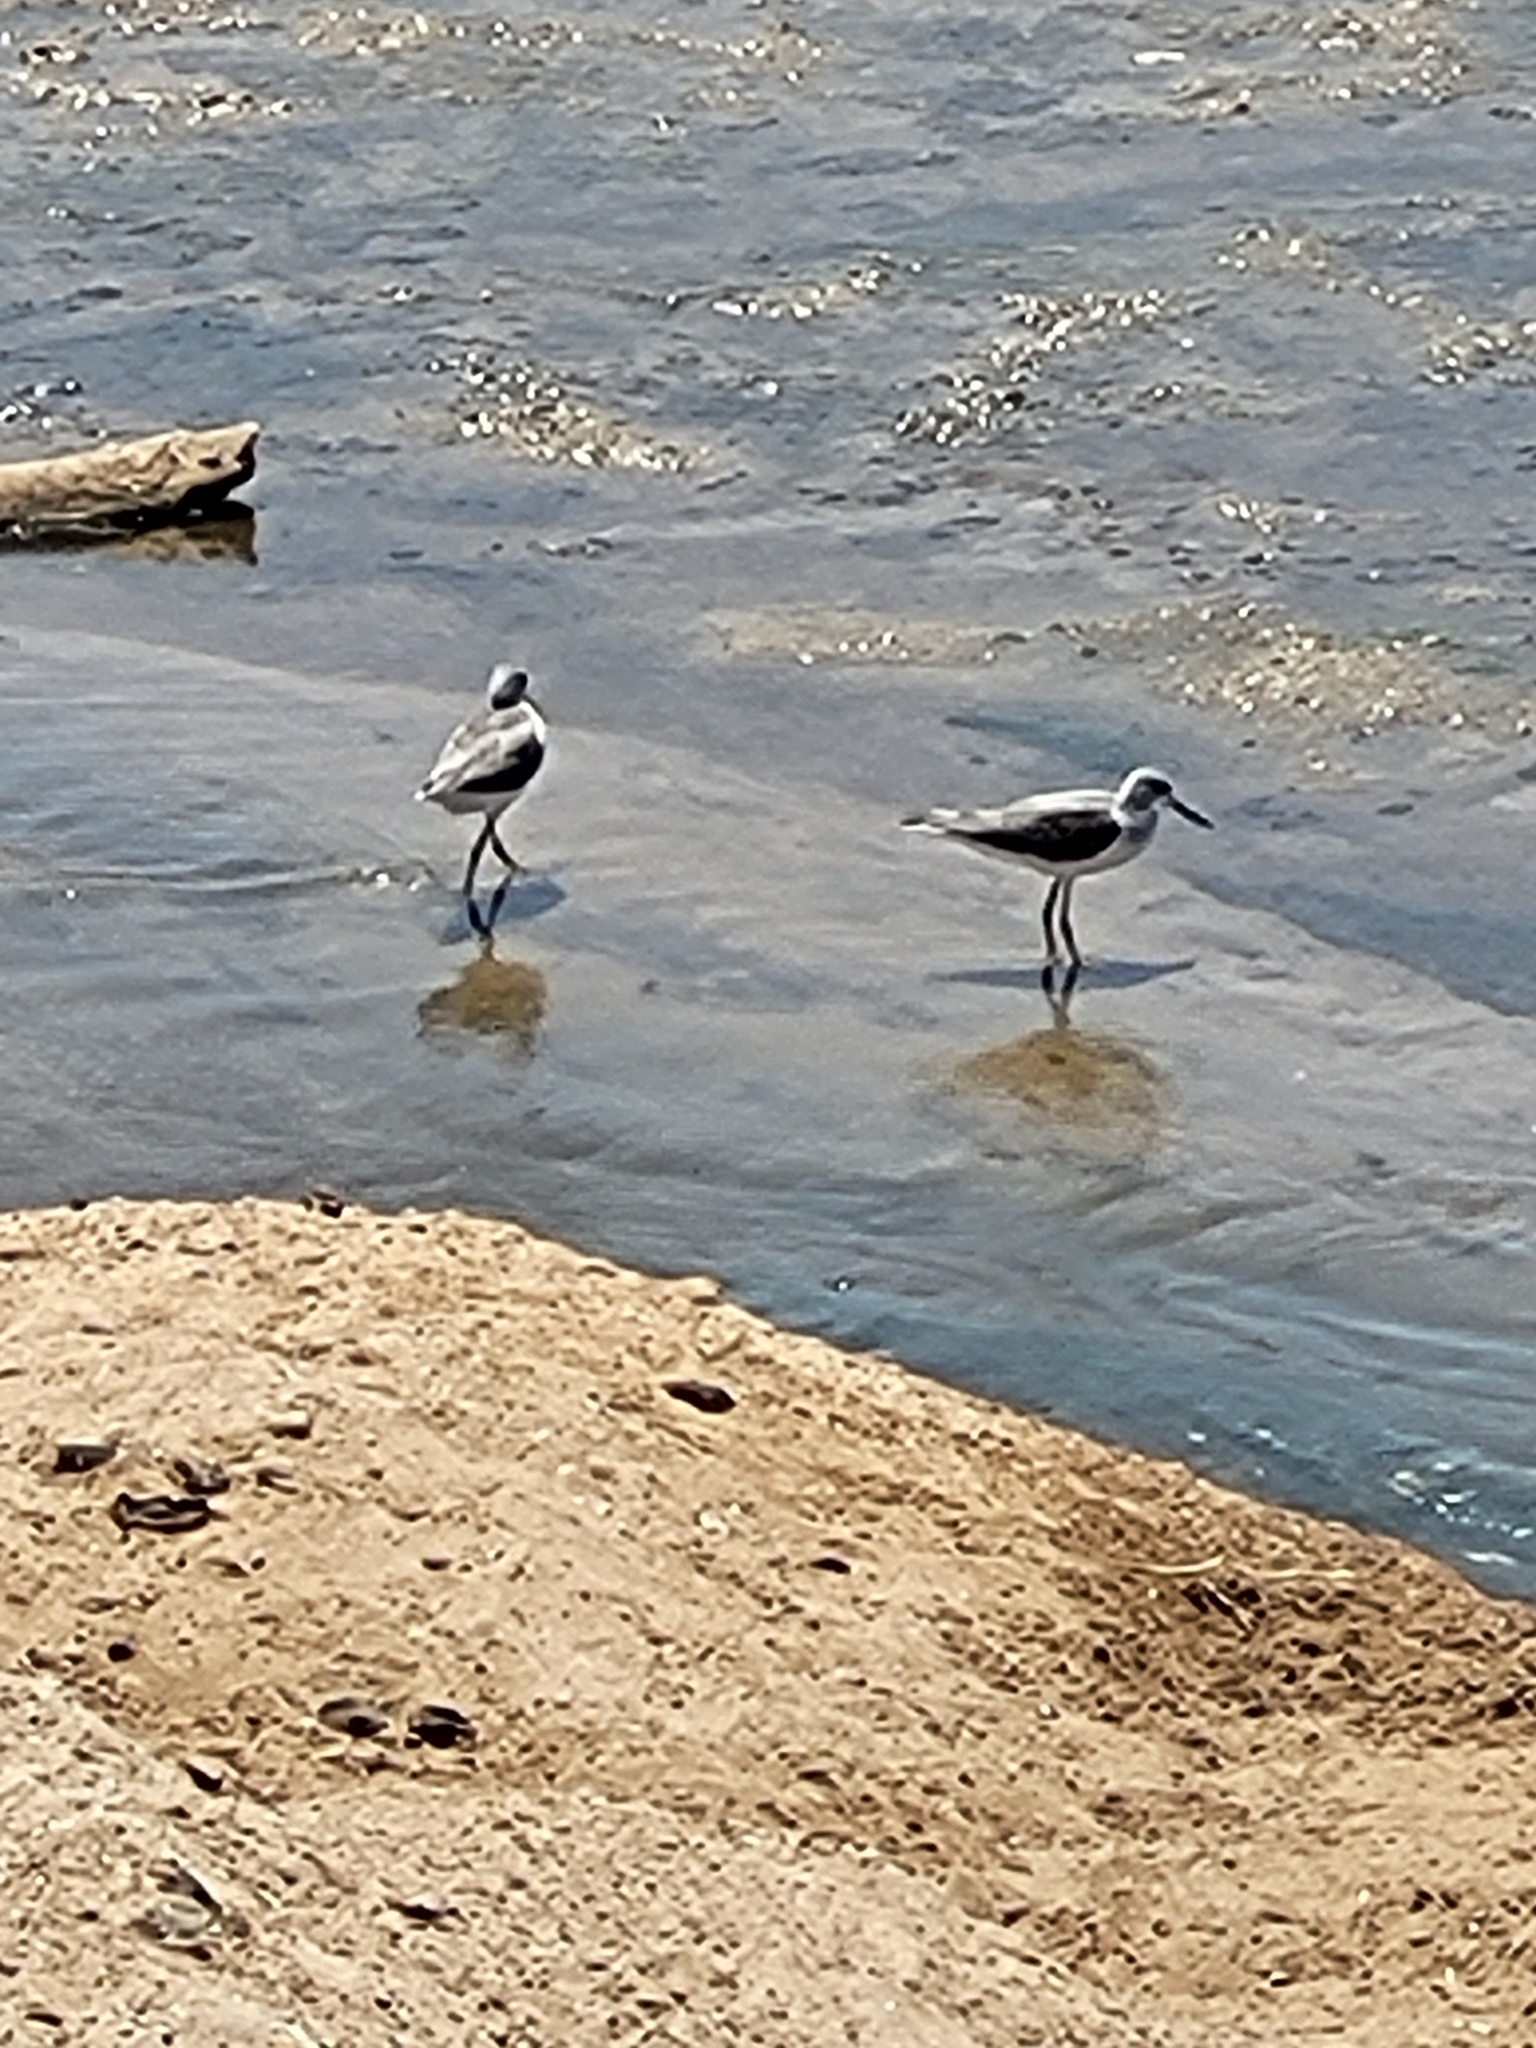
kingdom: Animalia
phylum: Chordata
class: Aves
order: Charadriiformes
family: Scolopacidae
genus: Tringa
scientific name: Tringa nebularia
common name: Common greenshank
